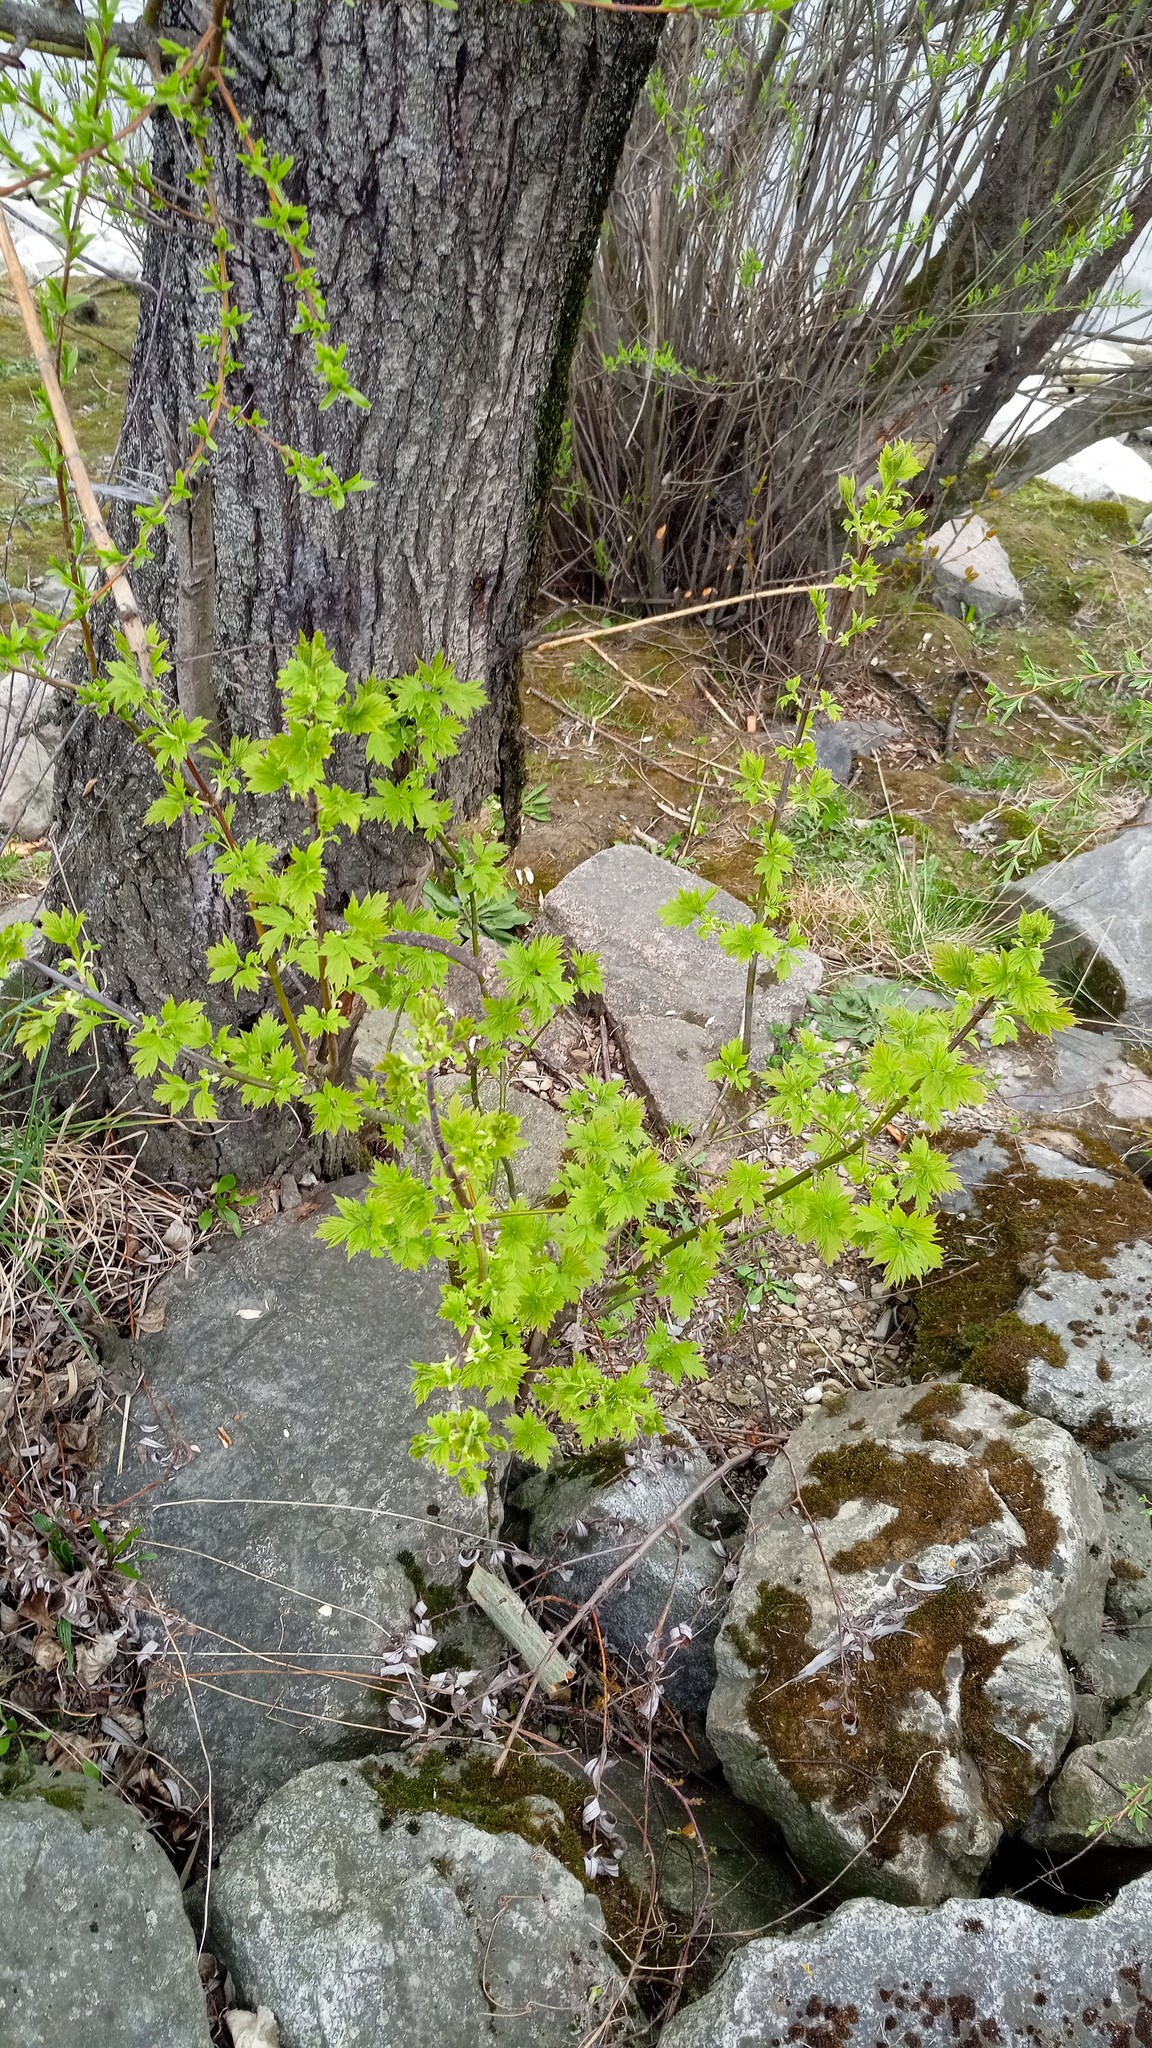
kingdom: Plantae
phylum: Tracheophyta
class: Magnoliopsida
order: Sapindales
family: Sapindaceae
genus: Acer
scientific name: Acer negundo
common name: Ashleaf maple
